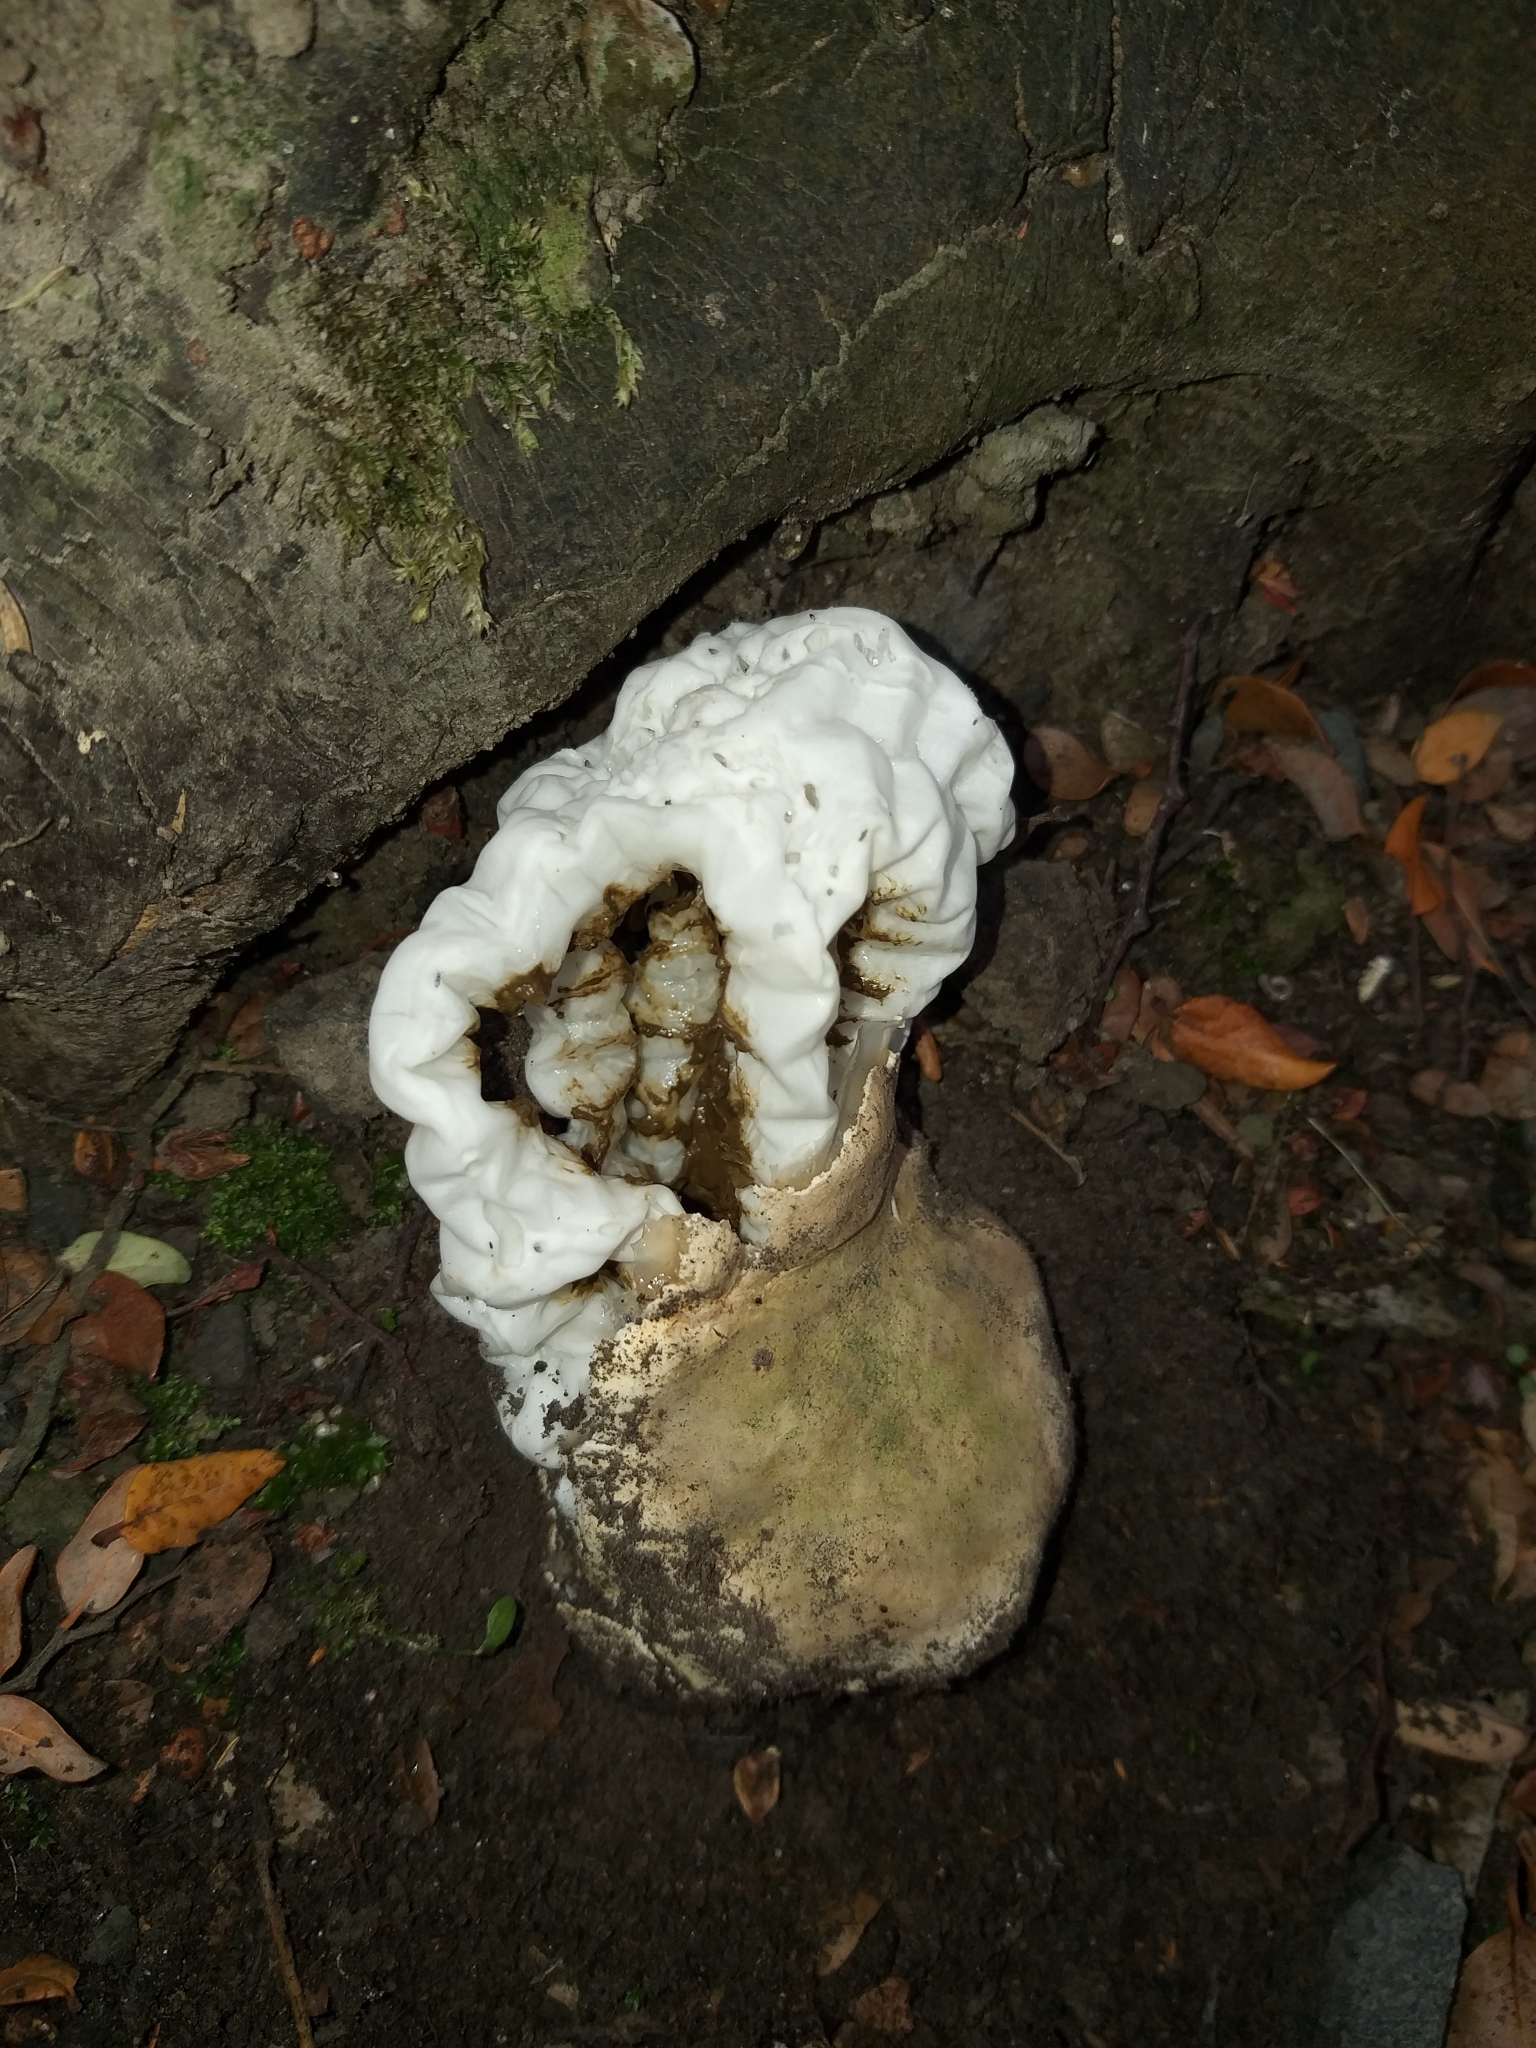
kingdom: Fungi
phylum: Basidiomycota
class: Agaricomycetes
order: Phallales
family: Phallaceae
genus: Ileodictyon
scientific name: Ileodictyon cibarium
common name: Basket fungus
